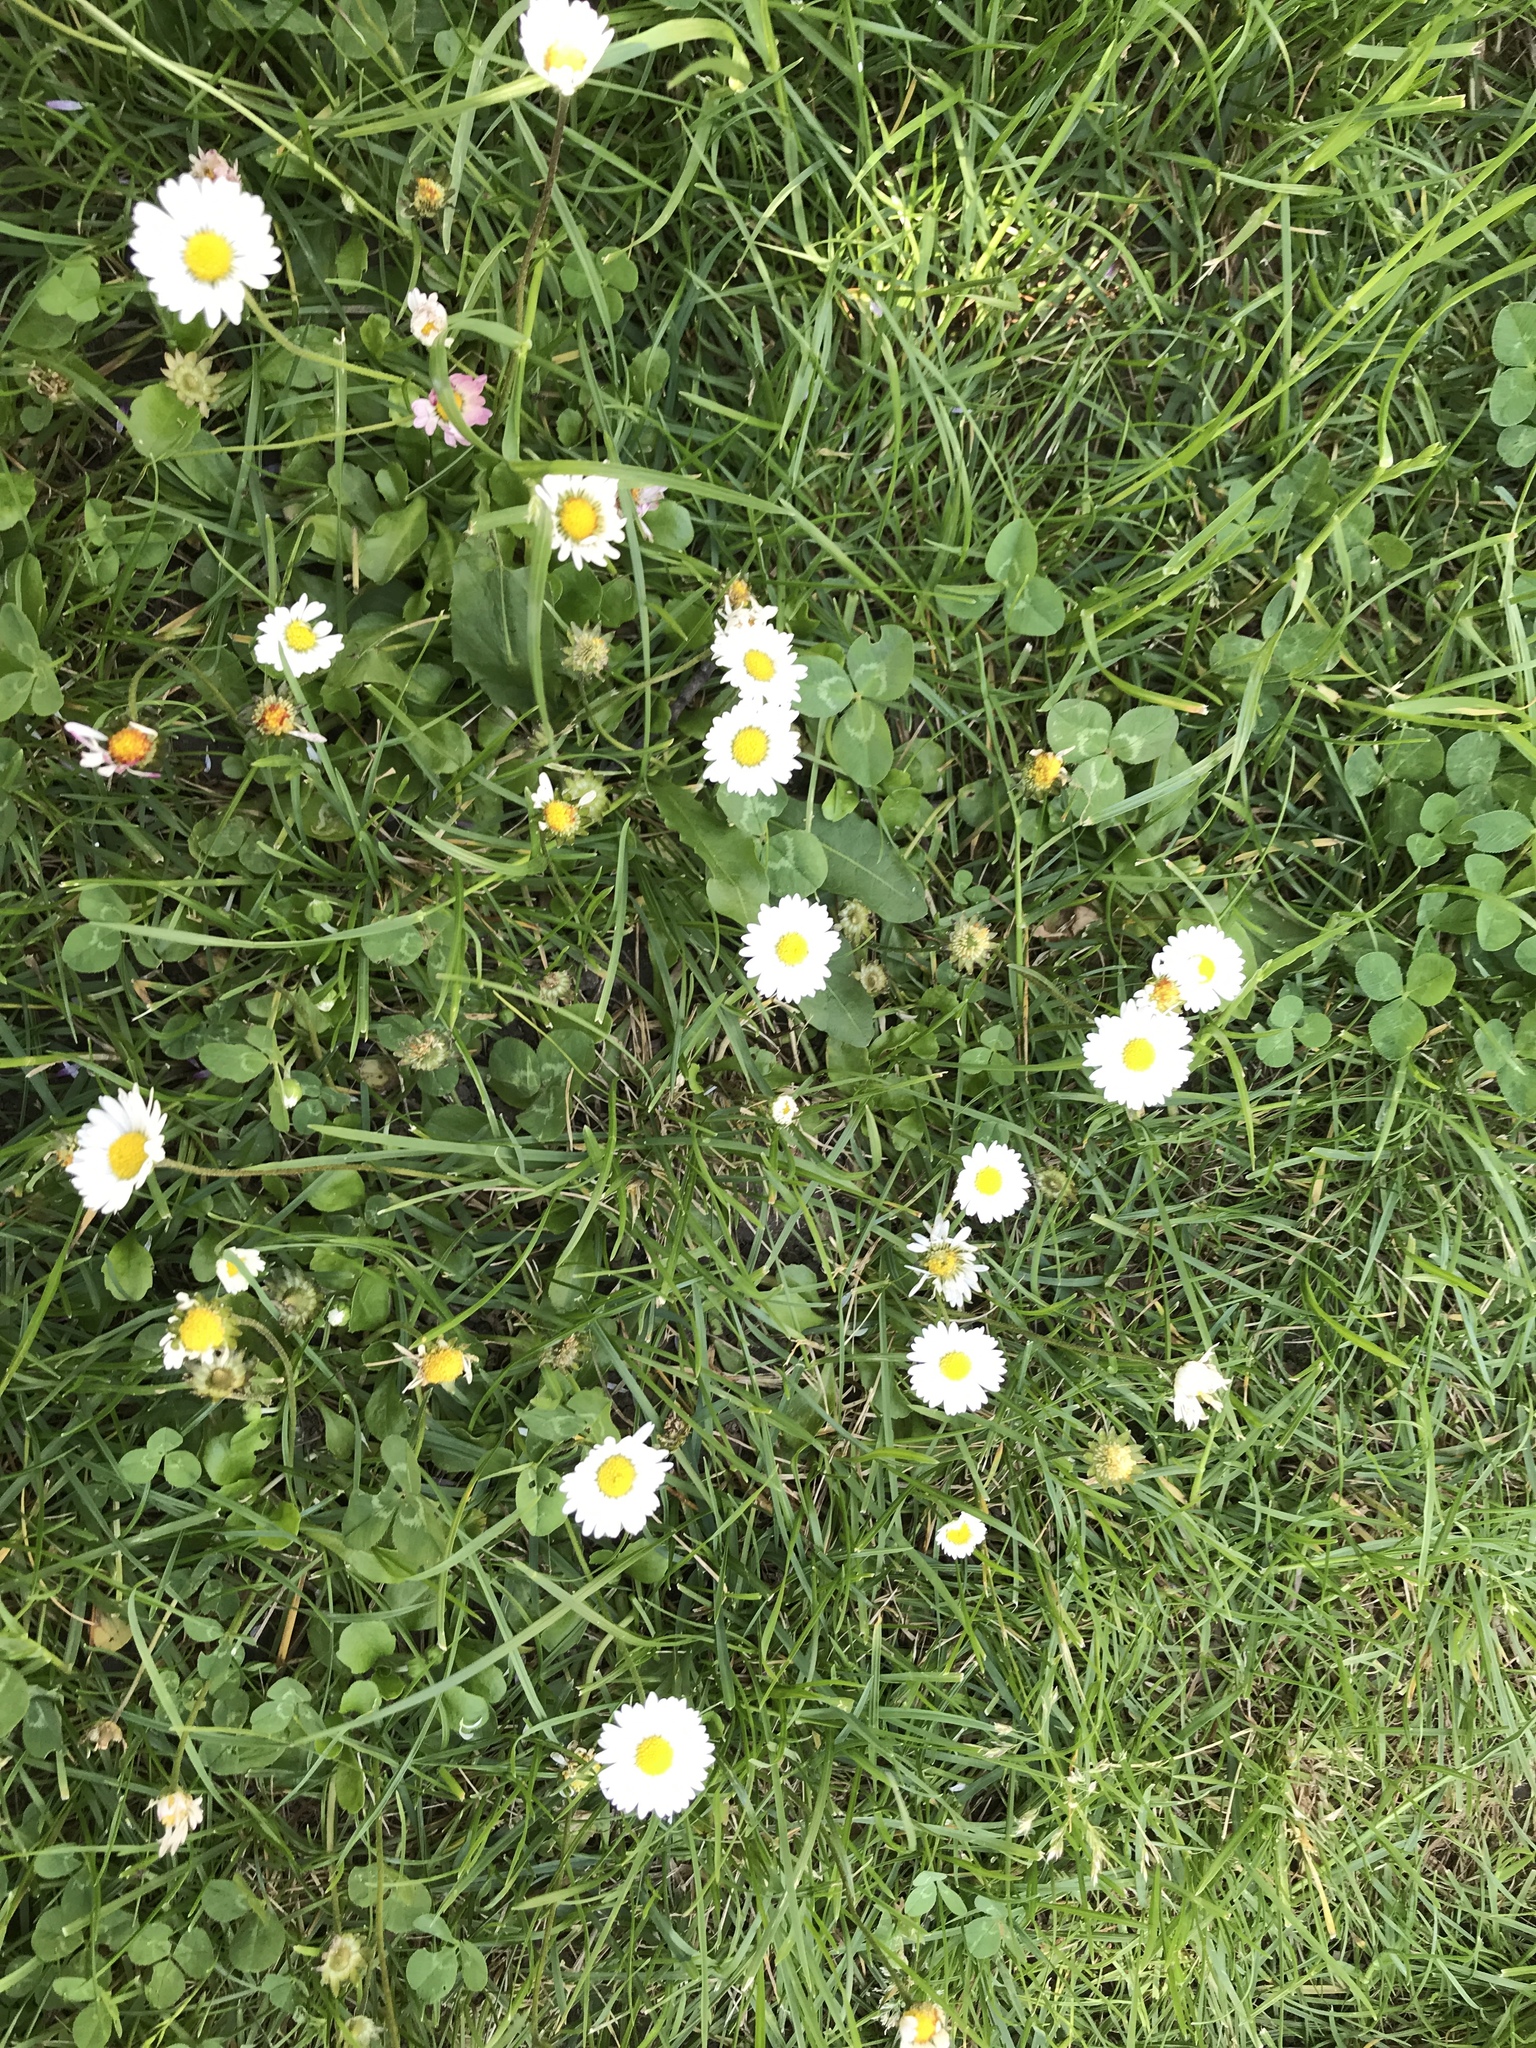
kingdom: Plantae
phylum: Tracheophyta
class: Magnoliopsida
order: Asterales
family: Asteraceae
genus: Bellis
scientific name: Bellis perennis
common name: Lawndaisy
